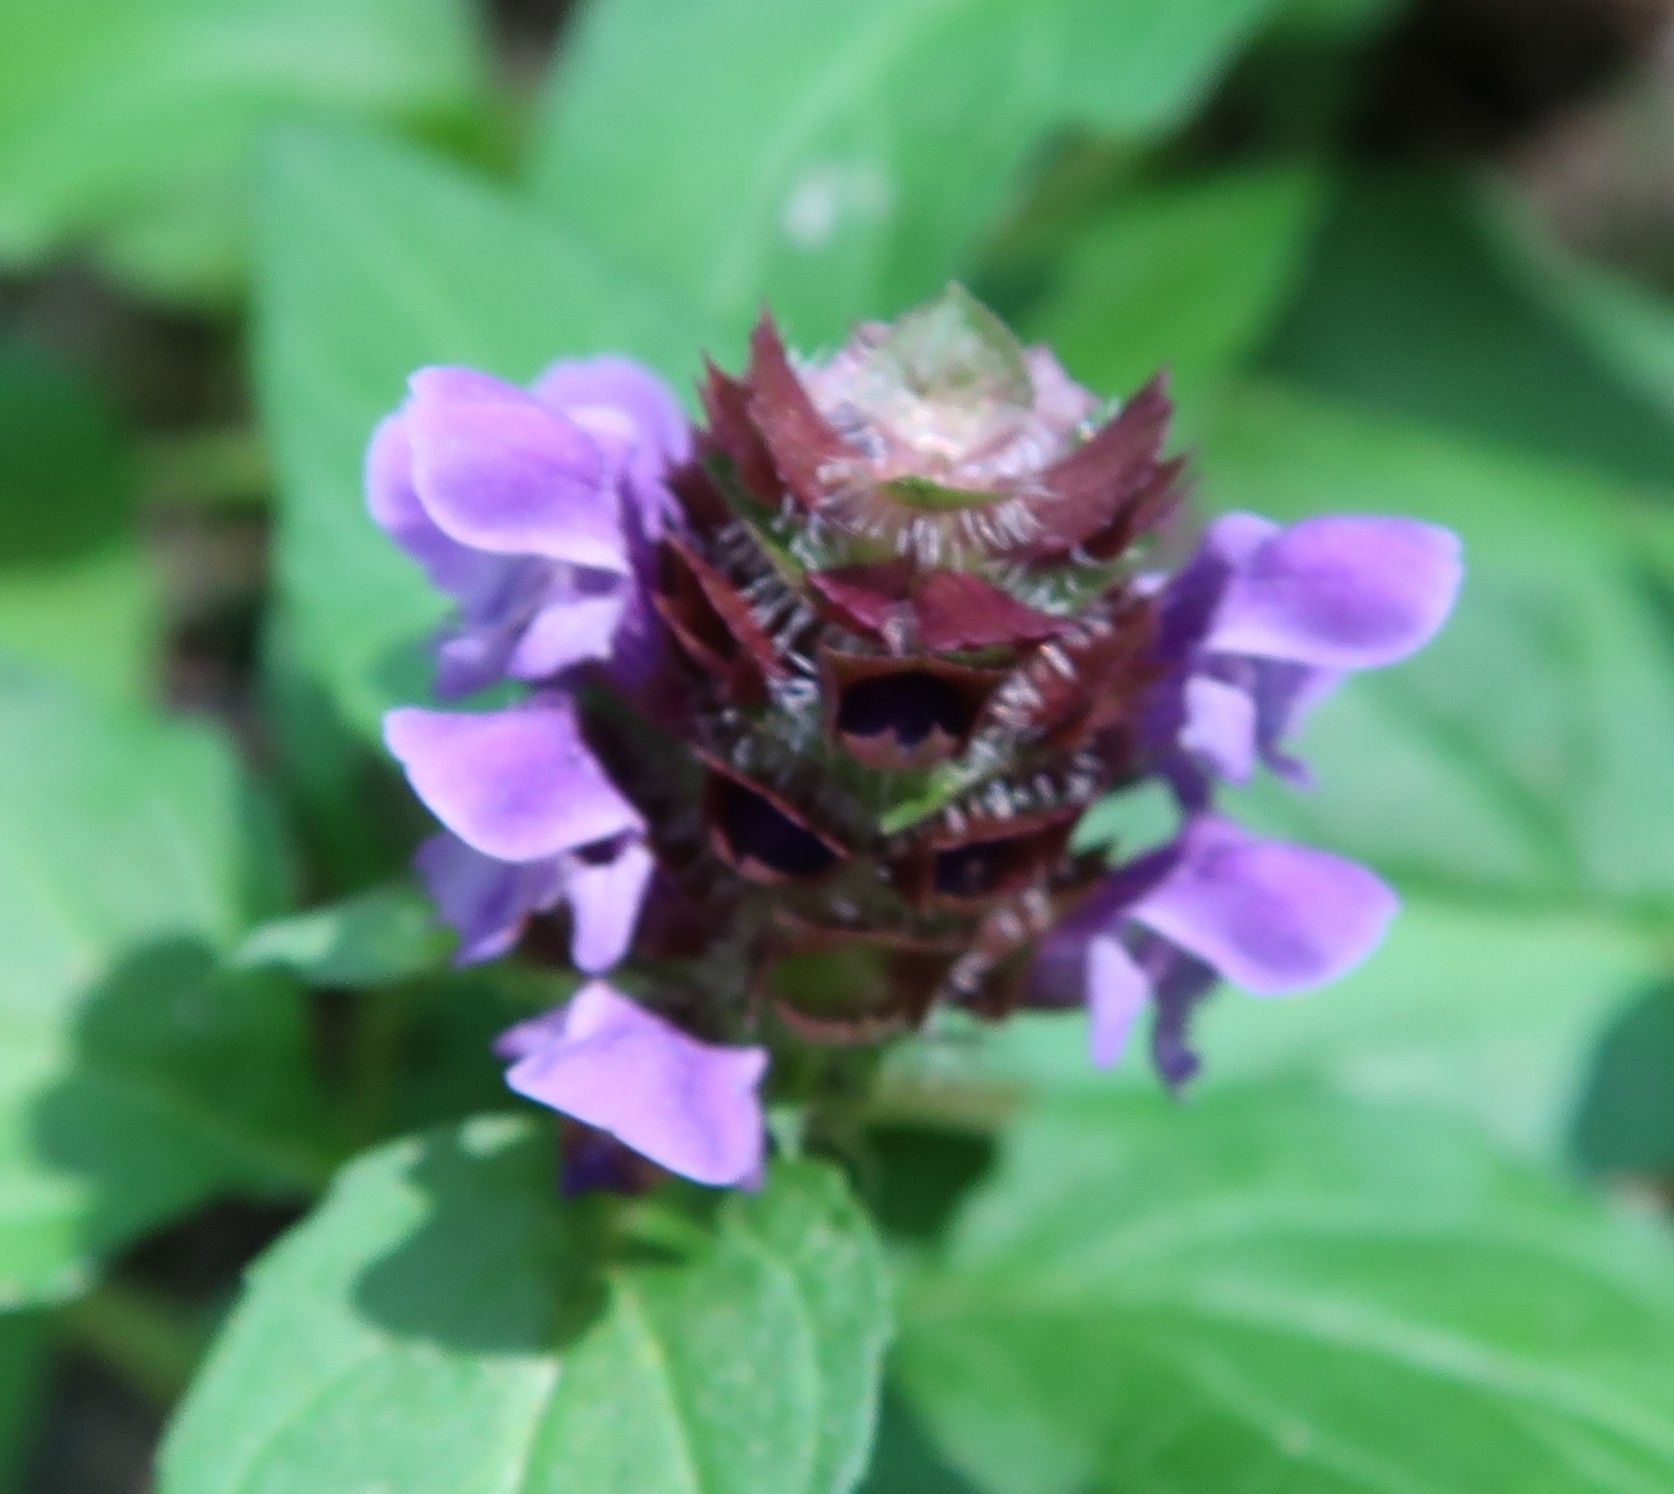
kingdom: Plantae
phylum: Tracheophyta
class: Magnoliopsida
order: Lamiales
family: Lamiaceae
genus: Prunella
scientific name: Prunella vulgaris
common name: Heal-all
